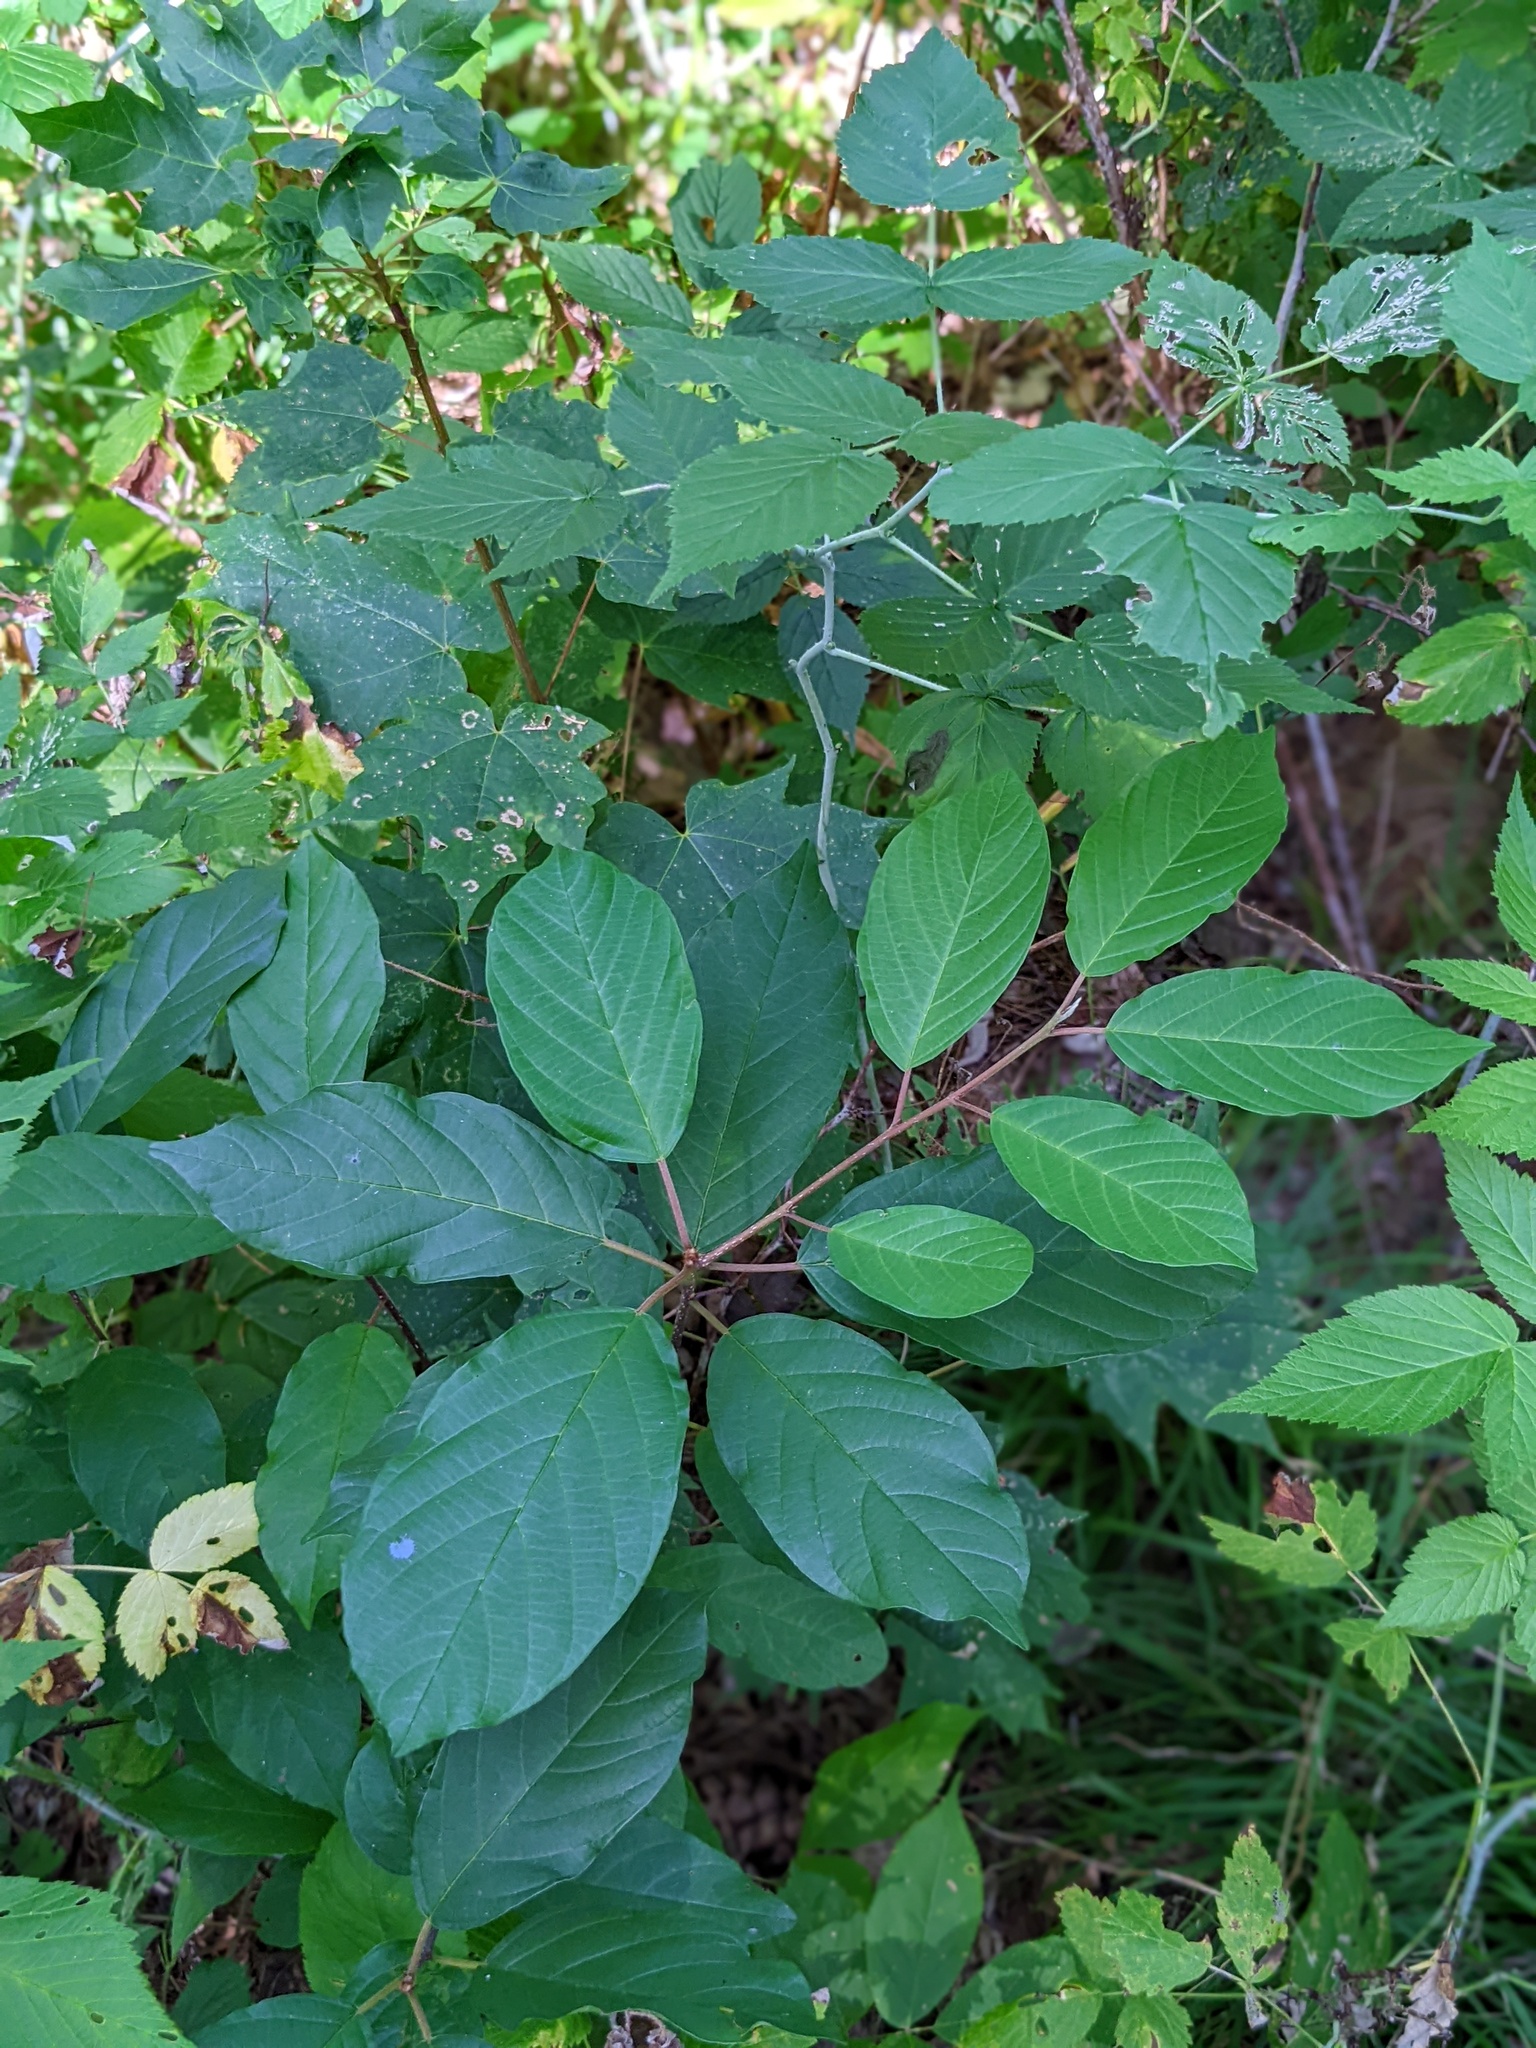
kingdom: Plantae
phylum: Tracheophyta
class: Magnoliopsida
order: Rosales
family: Rhamnaceae
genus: Frangula
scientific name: Frangula alnus
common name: Alder buckthorn
